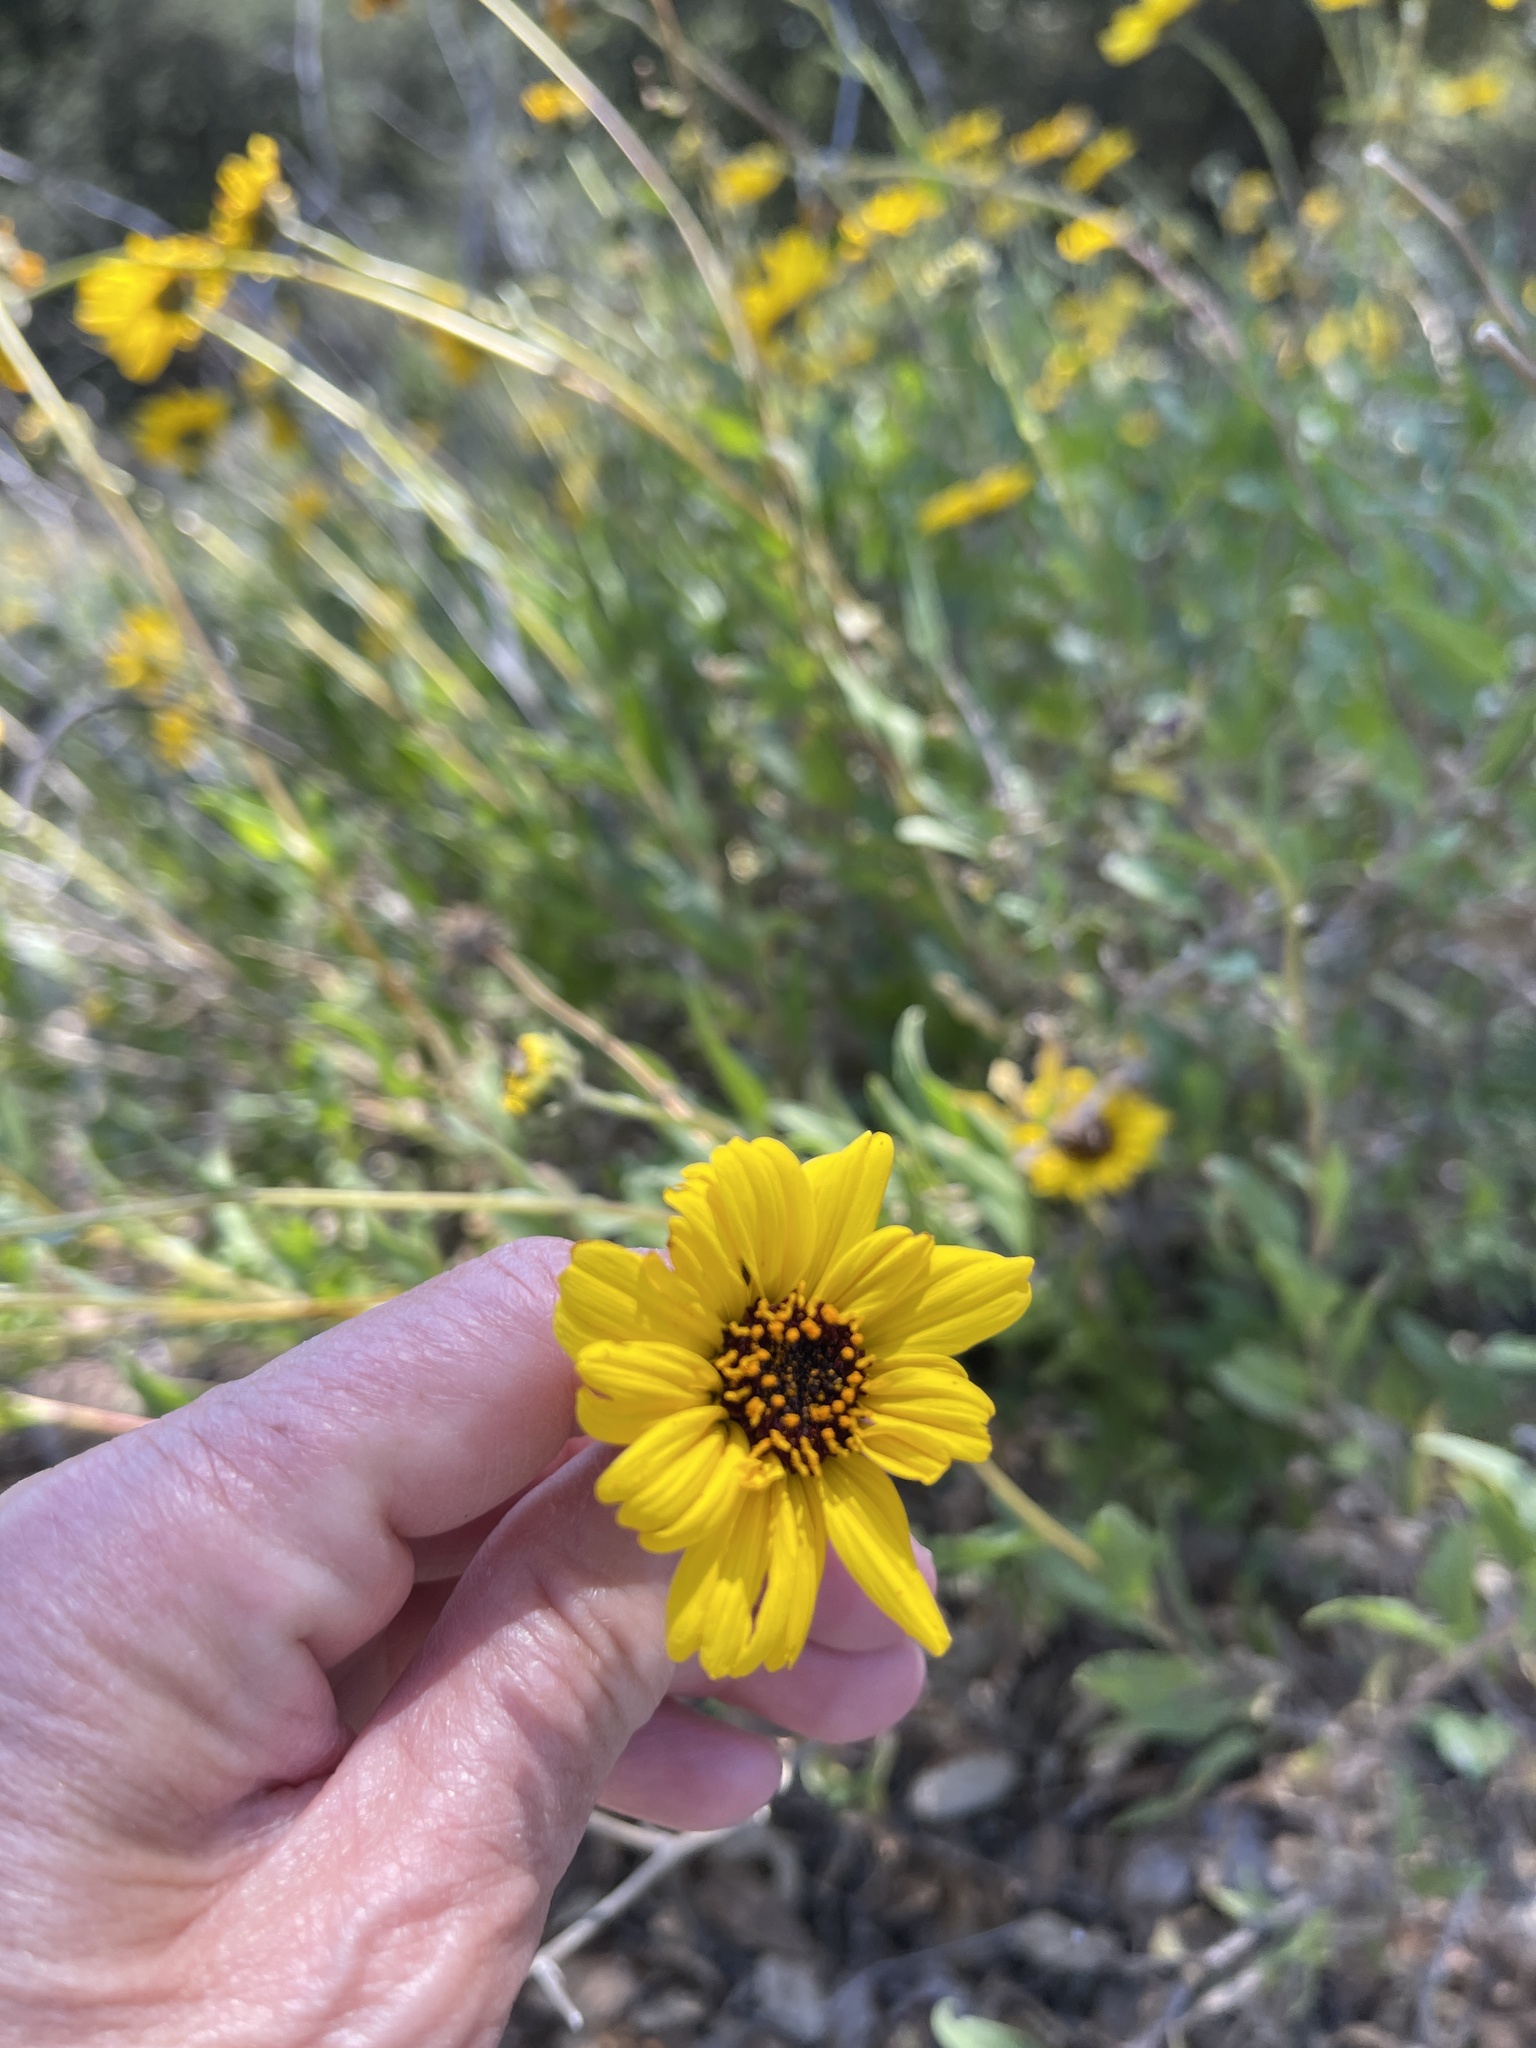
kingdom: Plantae
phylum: Tracheophyta
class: Magnoliopsida
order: Asterales
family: Asteraceae
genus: Encelia
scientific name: Encelia californica
